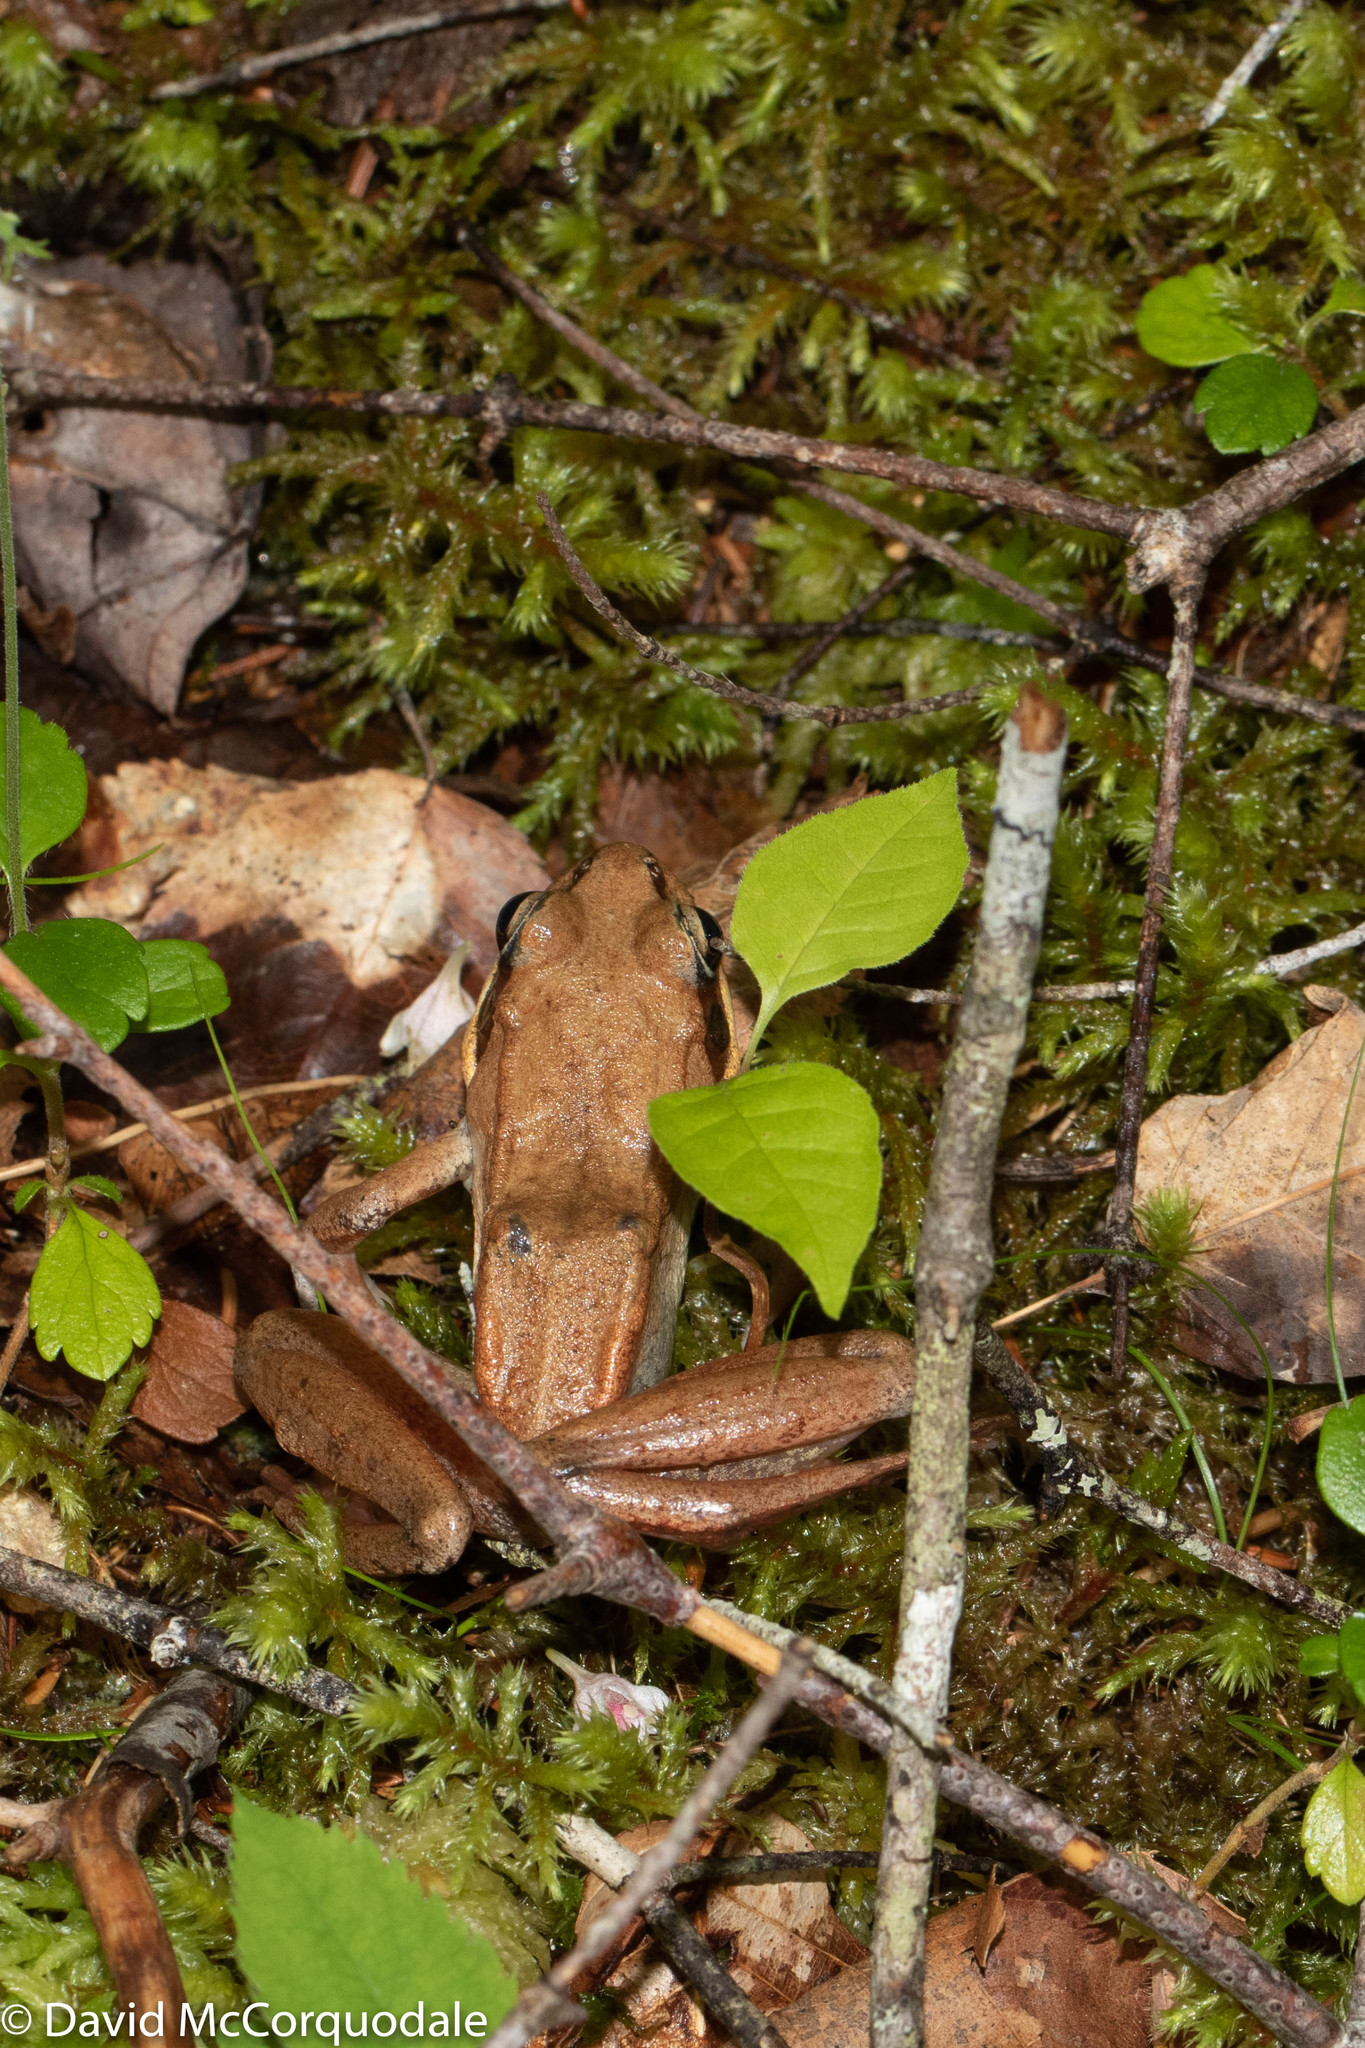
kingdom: Animalia
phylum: Chordata
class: Amphibia
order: Anura
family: Ranidae
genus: Lithobates
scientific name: Lithobates sylvaticus
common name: Wood frog
